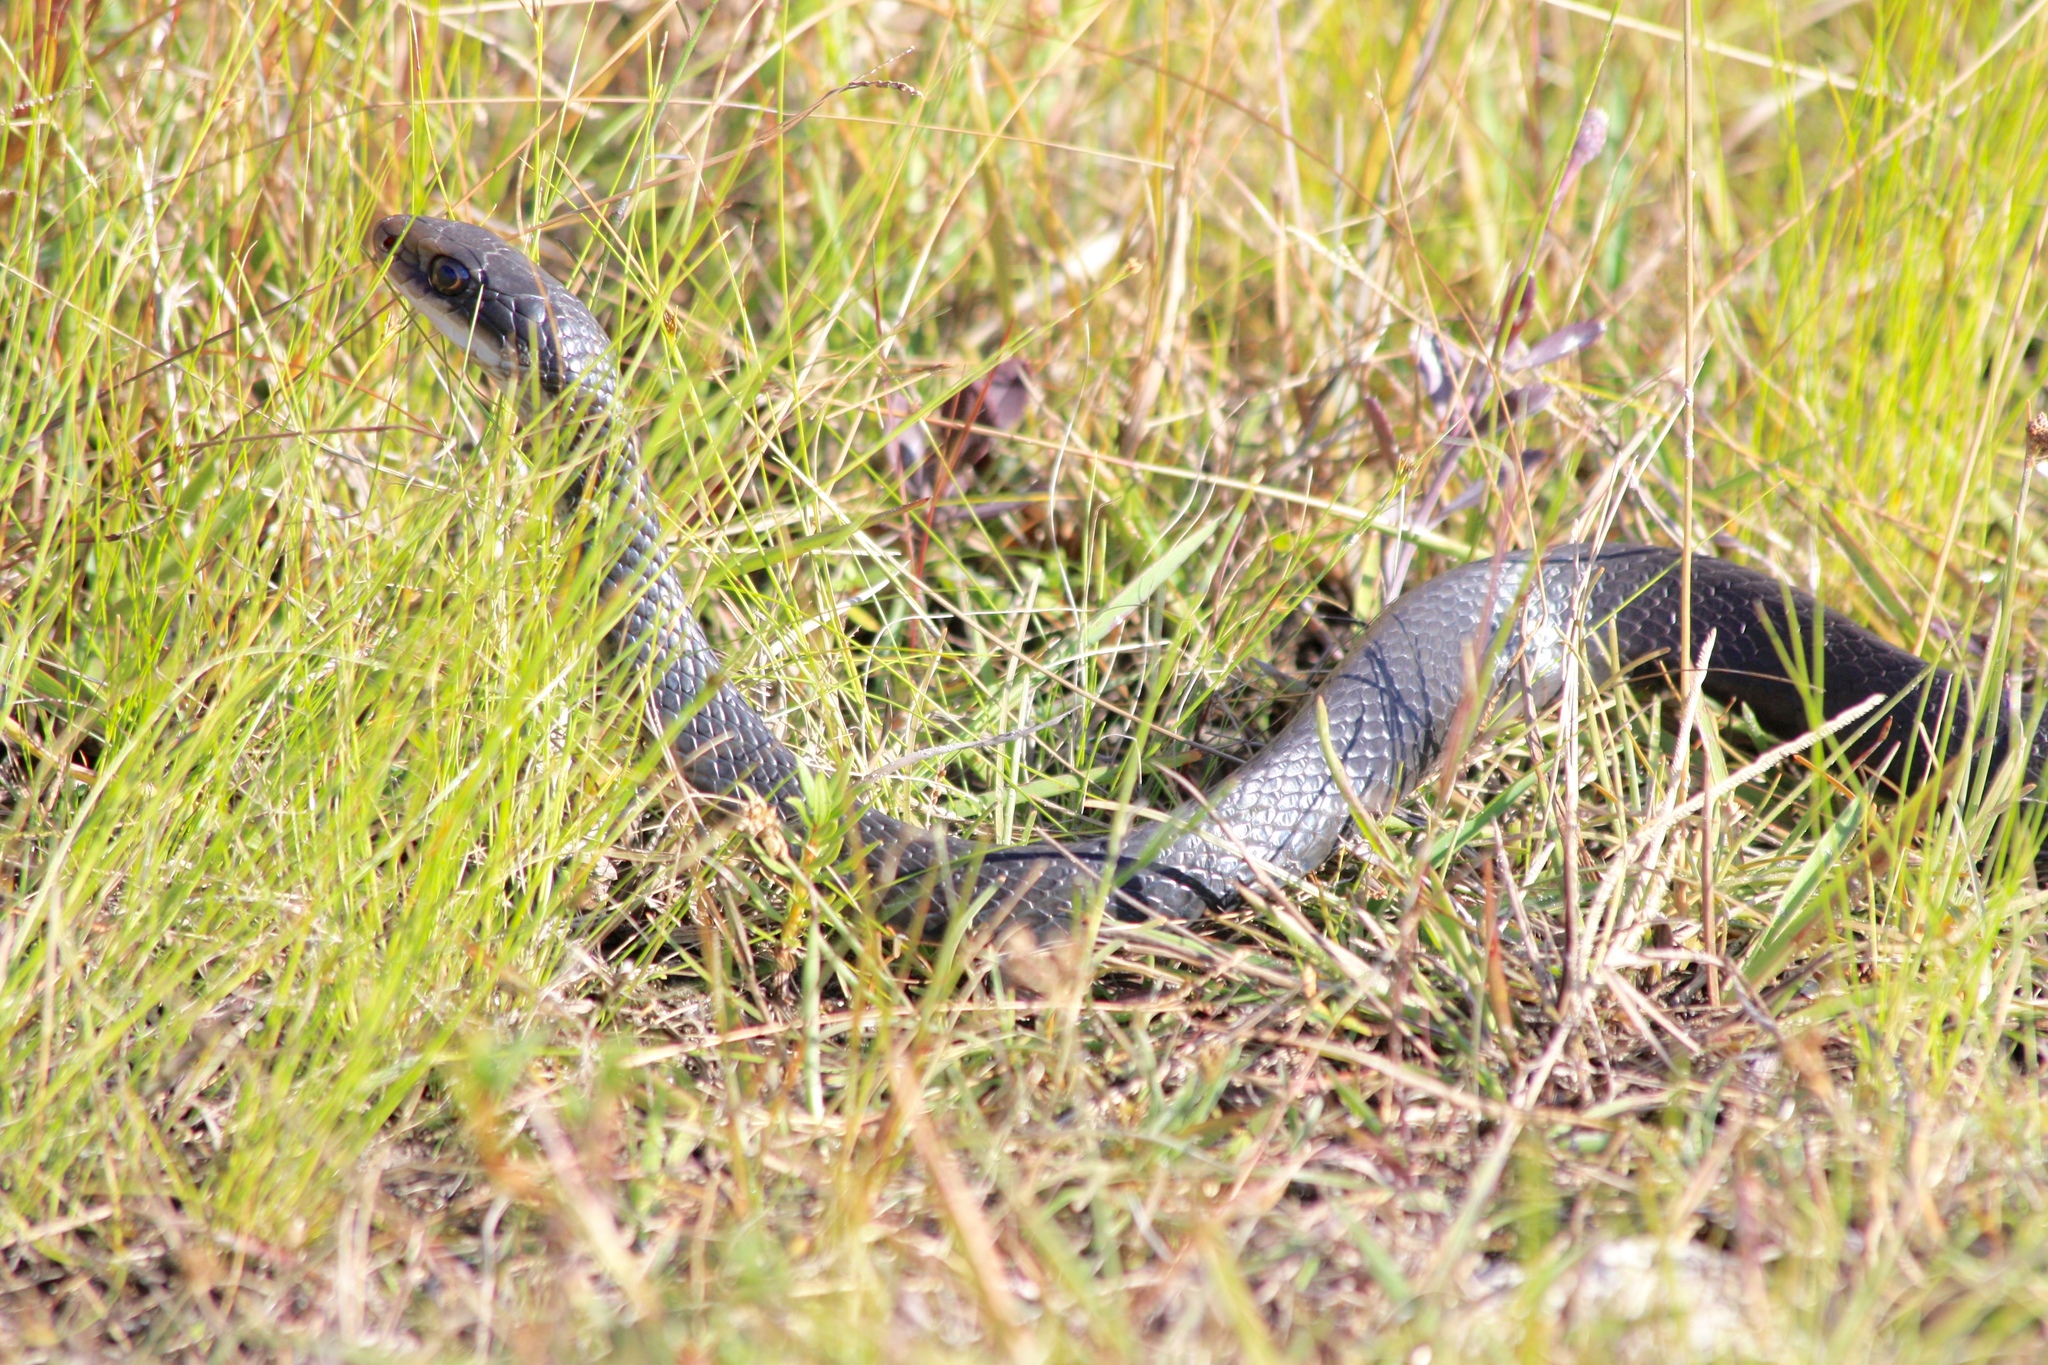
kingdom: Animalia
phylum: Chordata
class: Squamata
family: Colubridae
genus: Coluber
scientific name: Coluber constrictor
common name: Eastern racer
